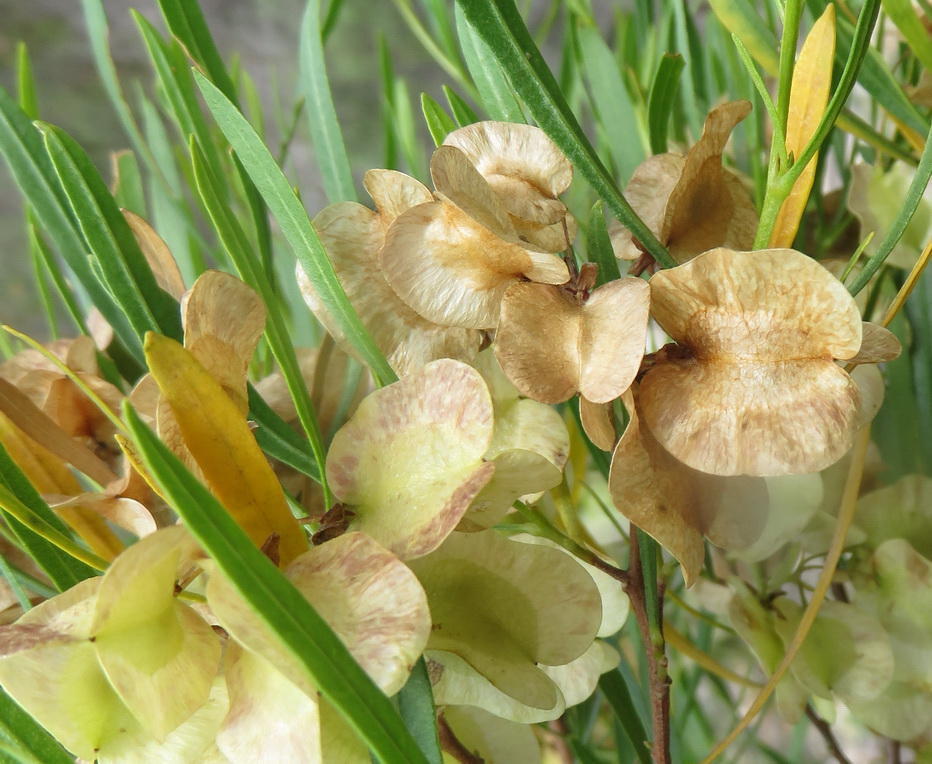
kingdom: Plantae
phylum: Tracheophyta
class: Magnoliopsida
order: Sapindales
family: Sapindaceae
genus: Dodonaea
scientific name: Dodonaea viscosa
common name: Hopbush
